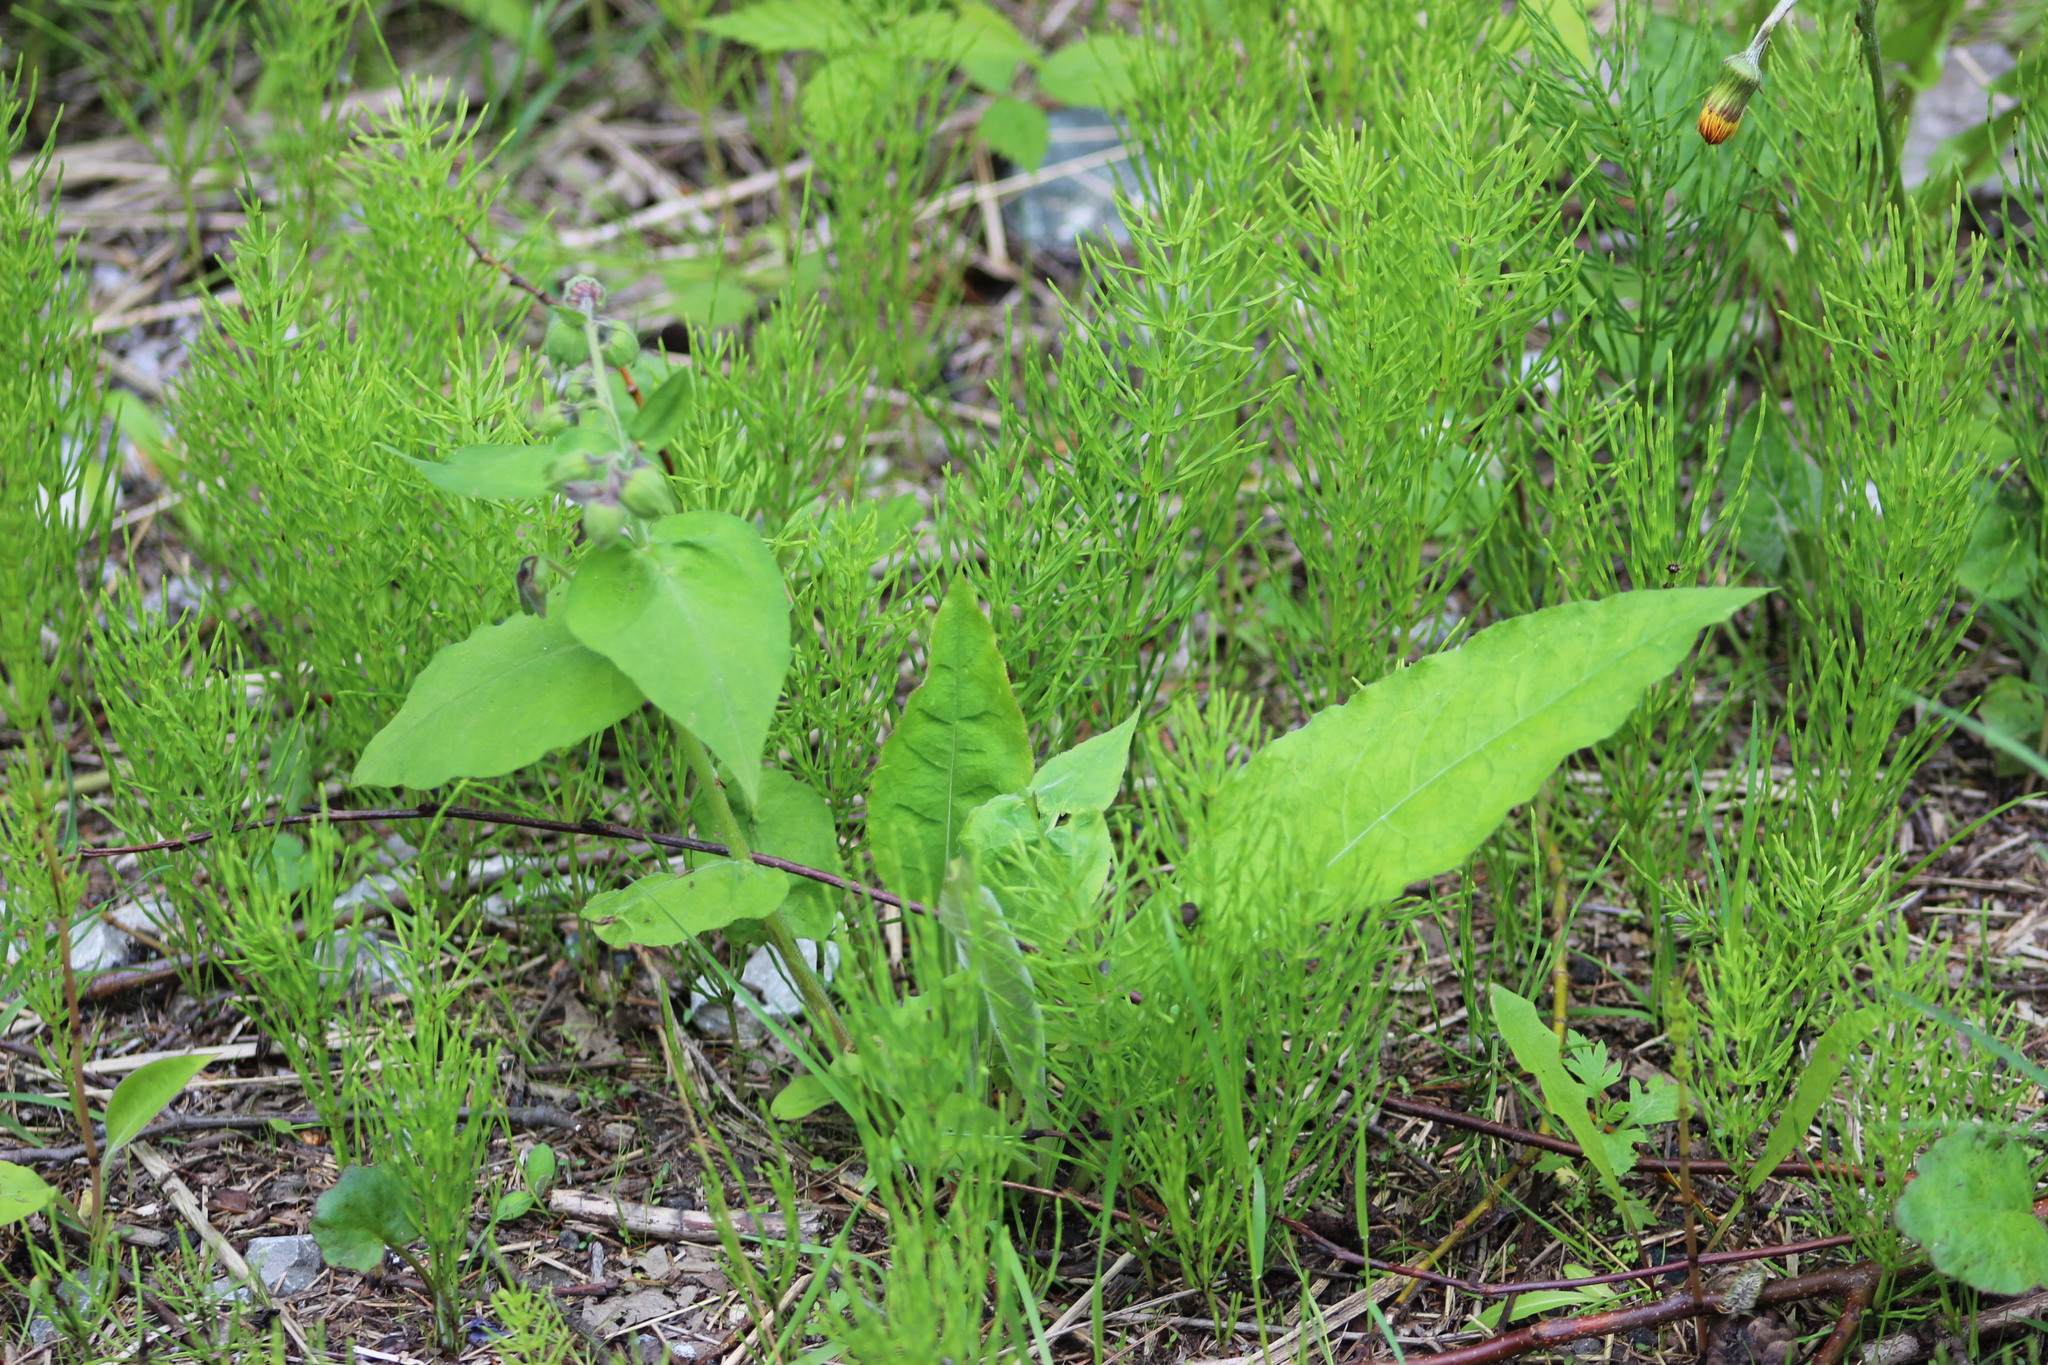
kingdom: Plantae
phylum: Tracheophyta
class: Magnoliopsida
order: Boraginales
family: Boraginaceae
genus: Pulmonaria
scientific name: Pulmonaria mollis
